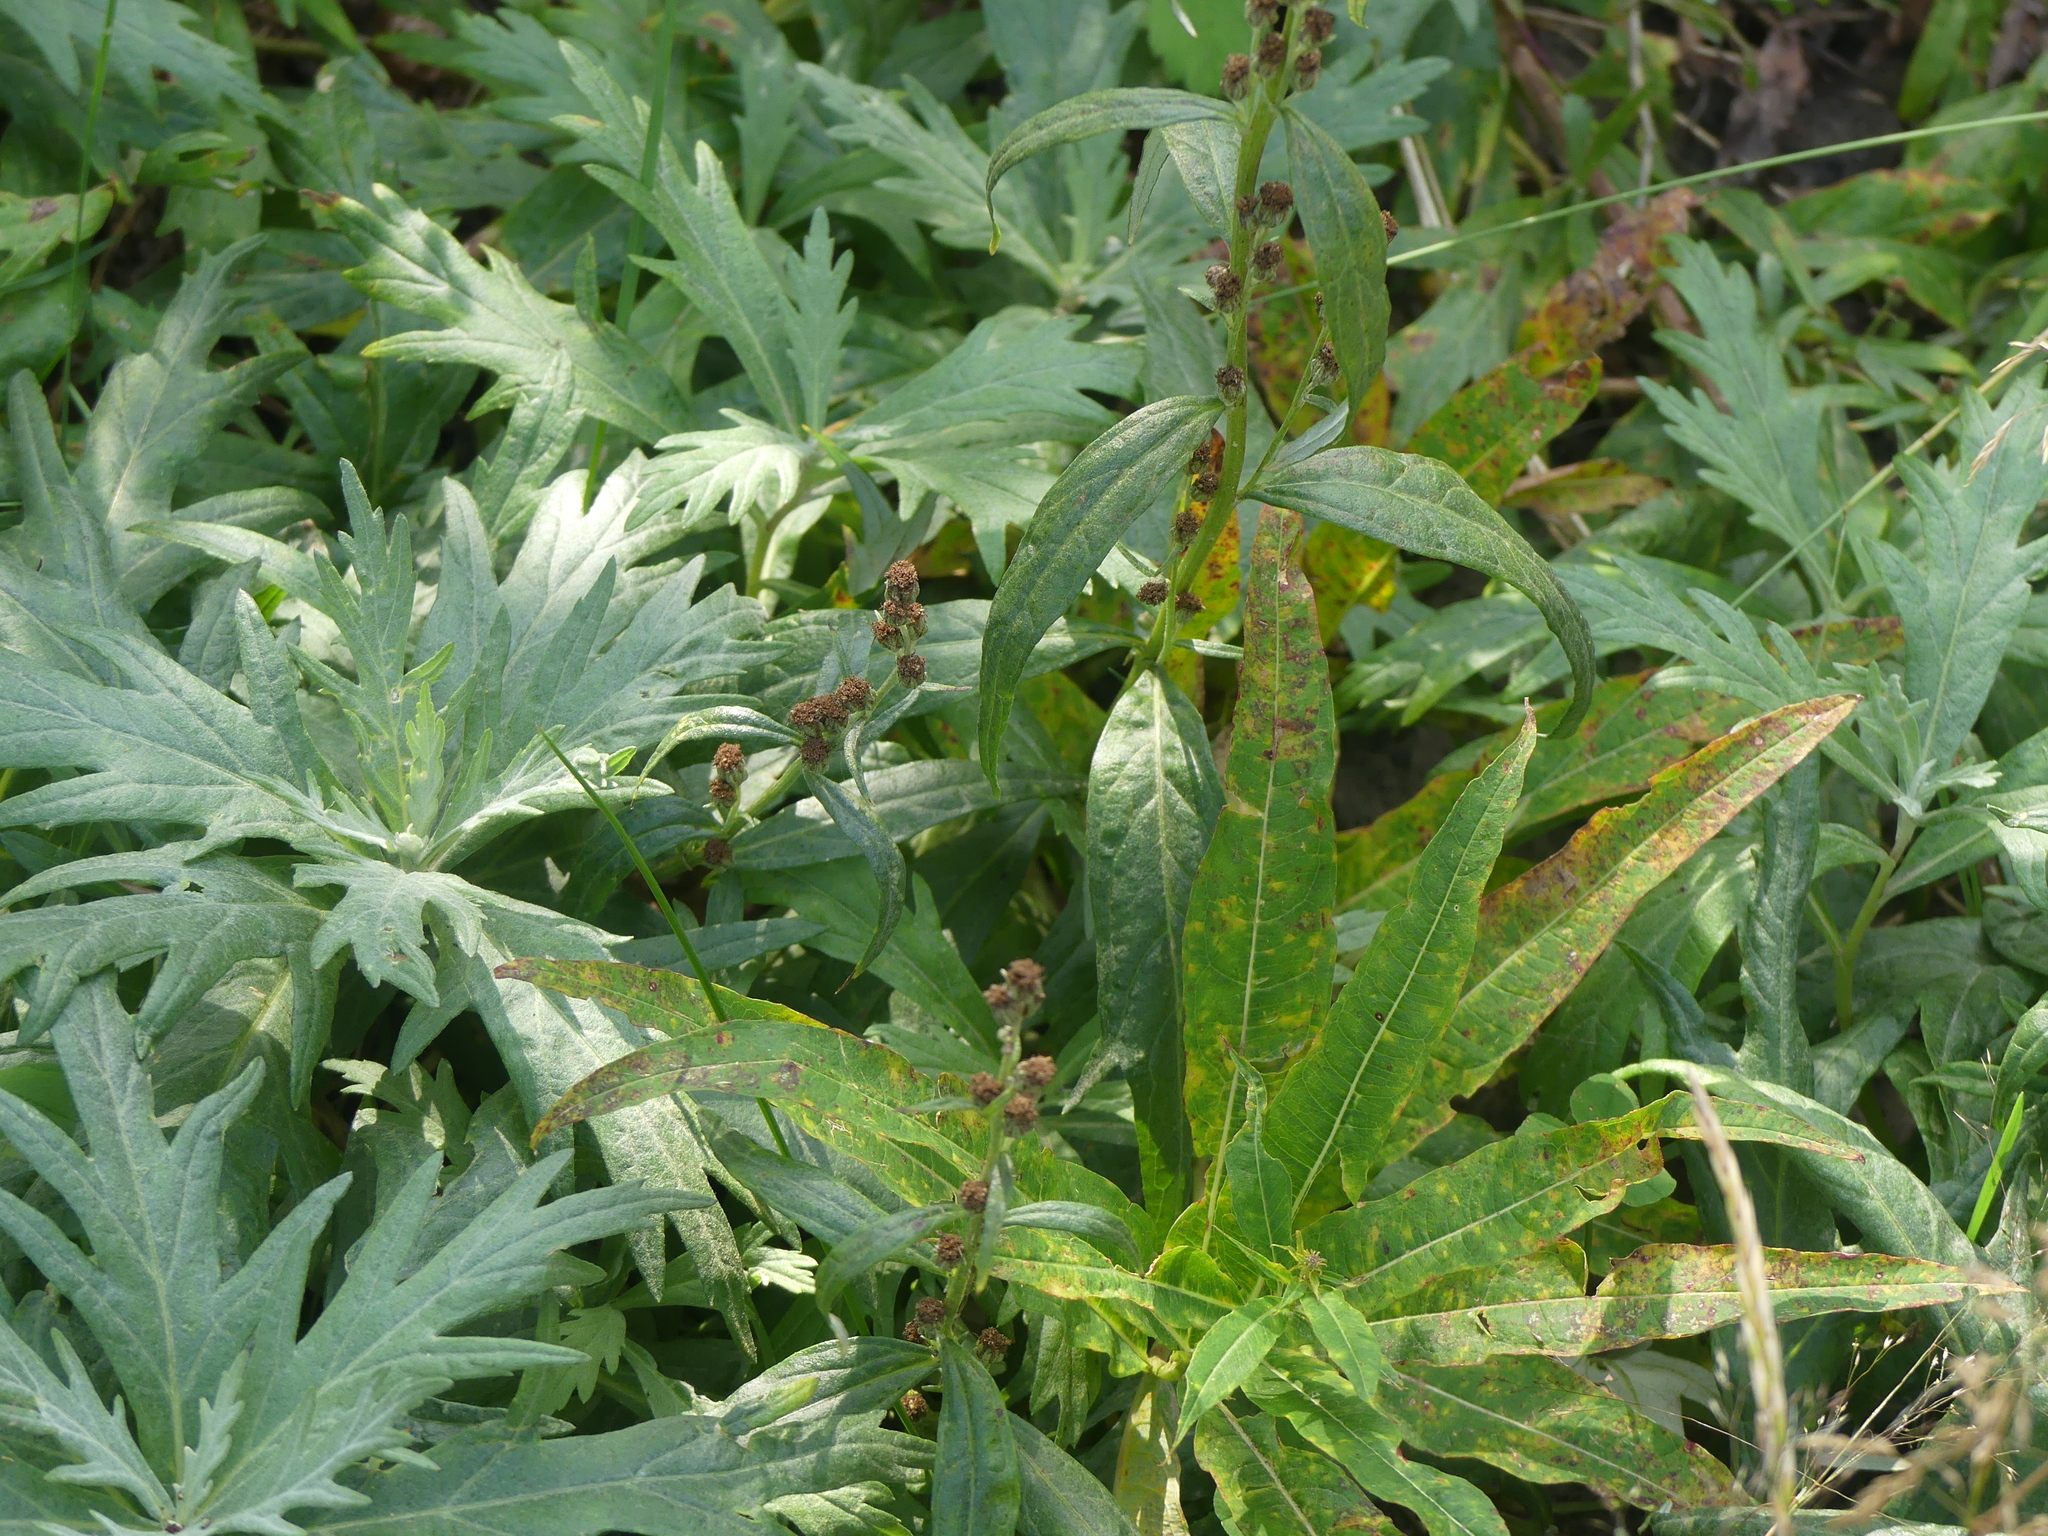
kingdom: Plantae
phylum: Tracheophyta
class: Magnoliopsida
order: Myrtales
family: Onagraceae
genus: Chamaenerion
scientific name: Chamaenerion angustifolium
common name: Fireweed
